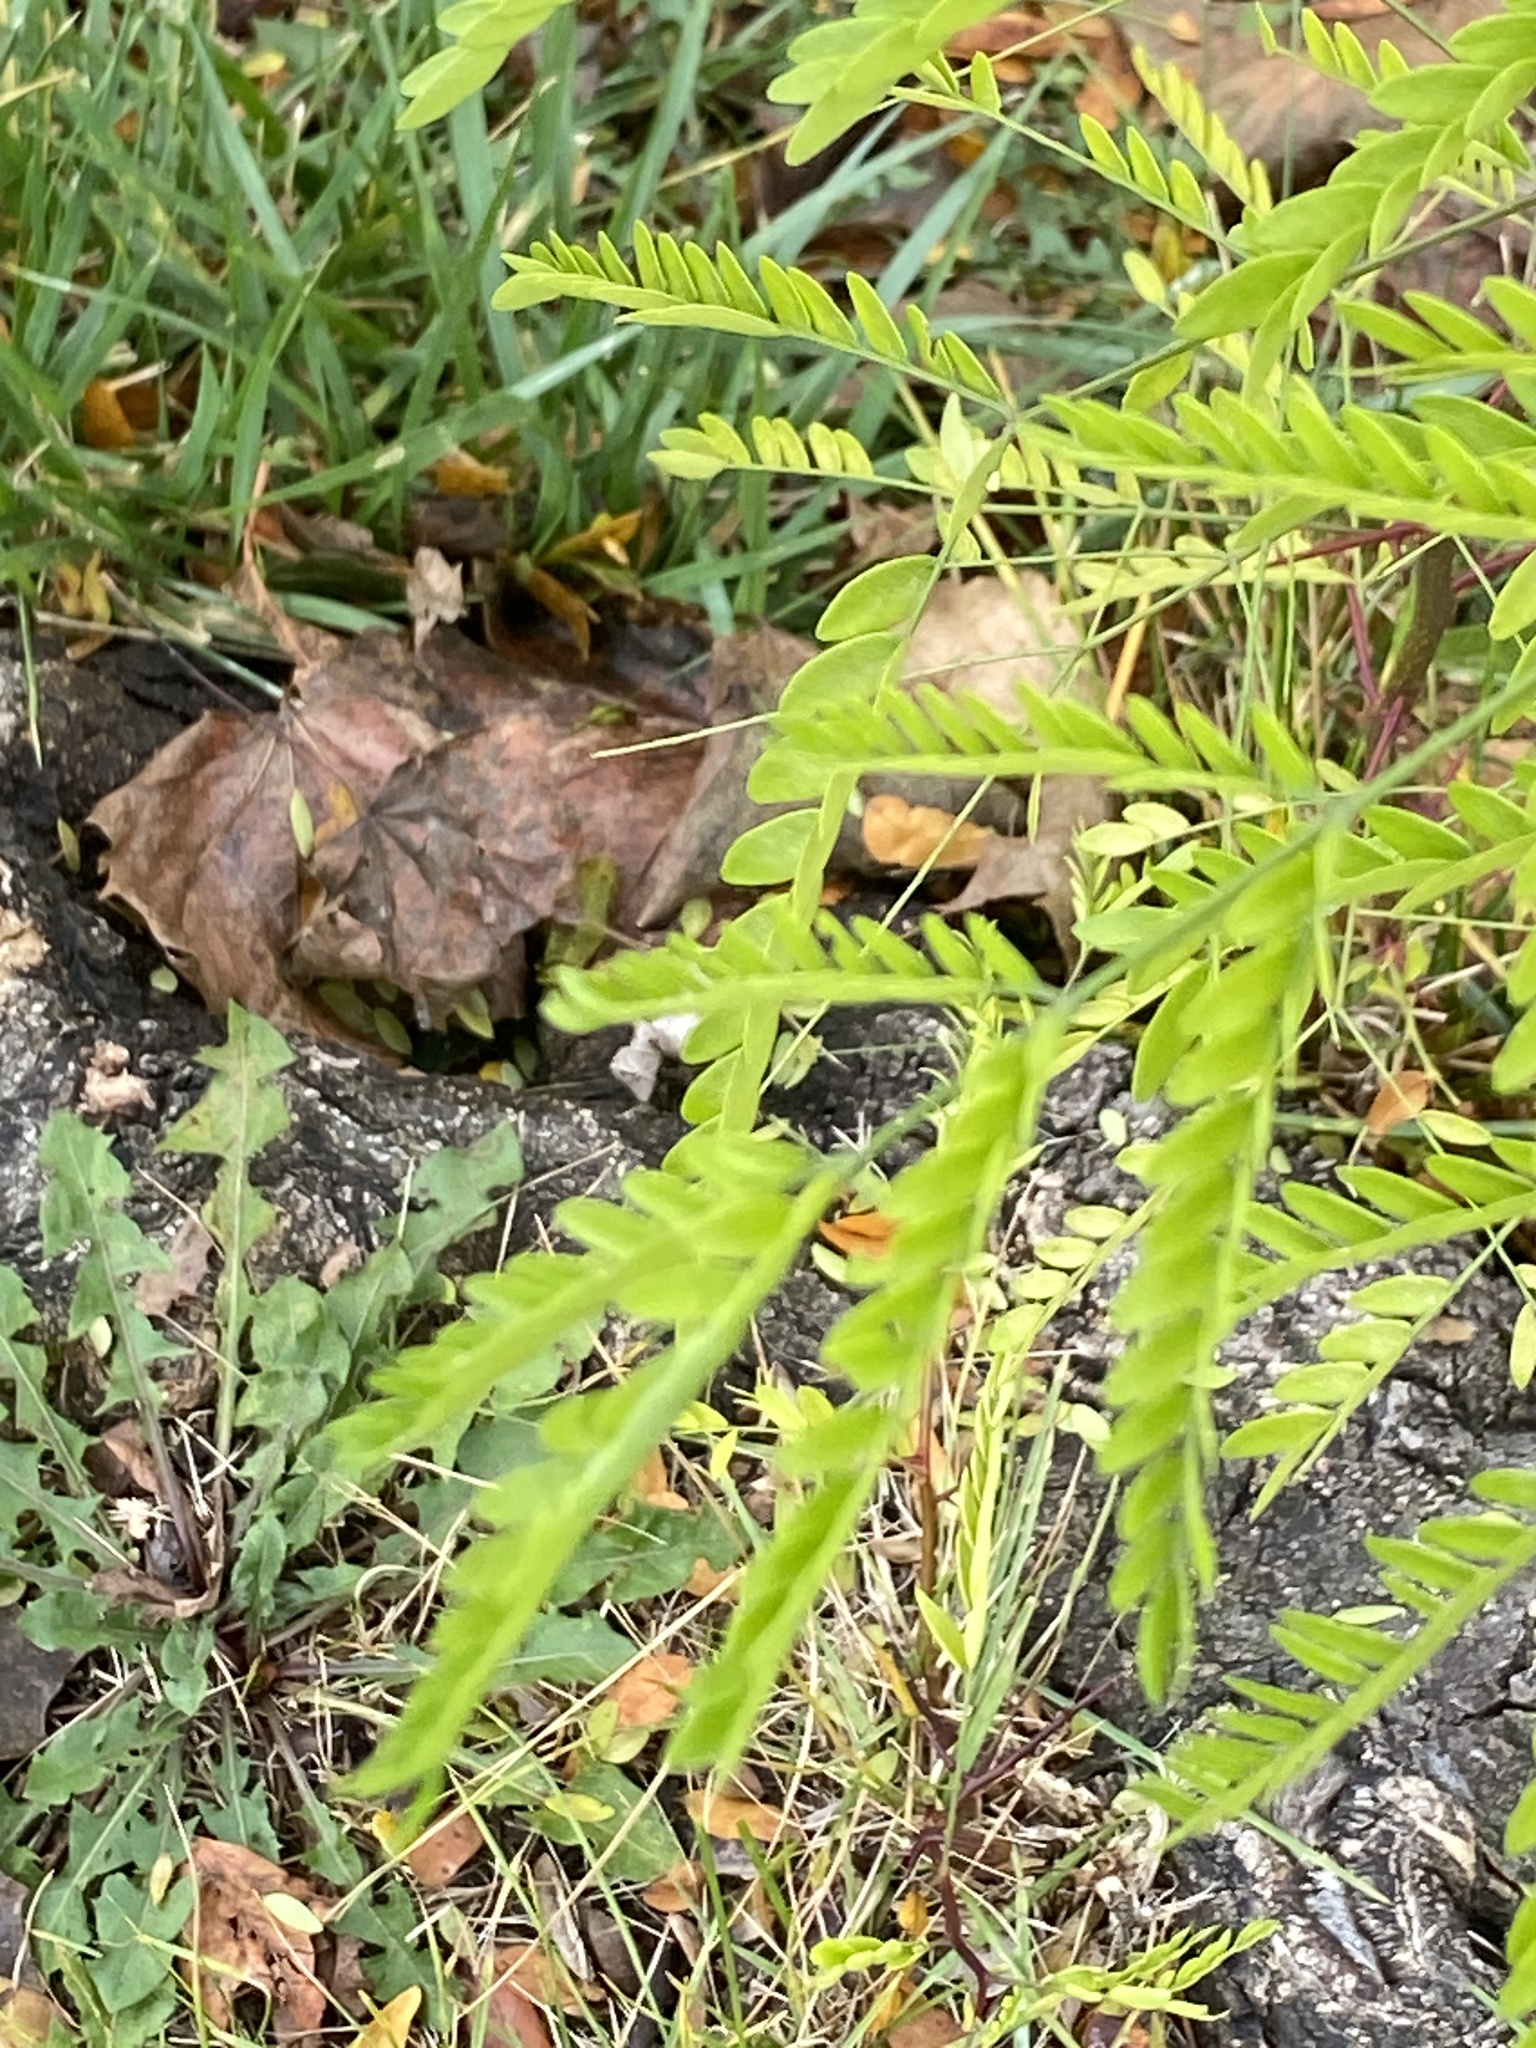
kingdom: Plantae
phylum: Tracheophyta
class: Magnoliopsida
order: Fabales
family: Fabaceae
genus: Gleditsia
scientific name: Gleditsia triacanthos
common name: Common honeylocust
